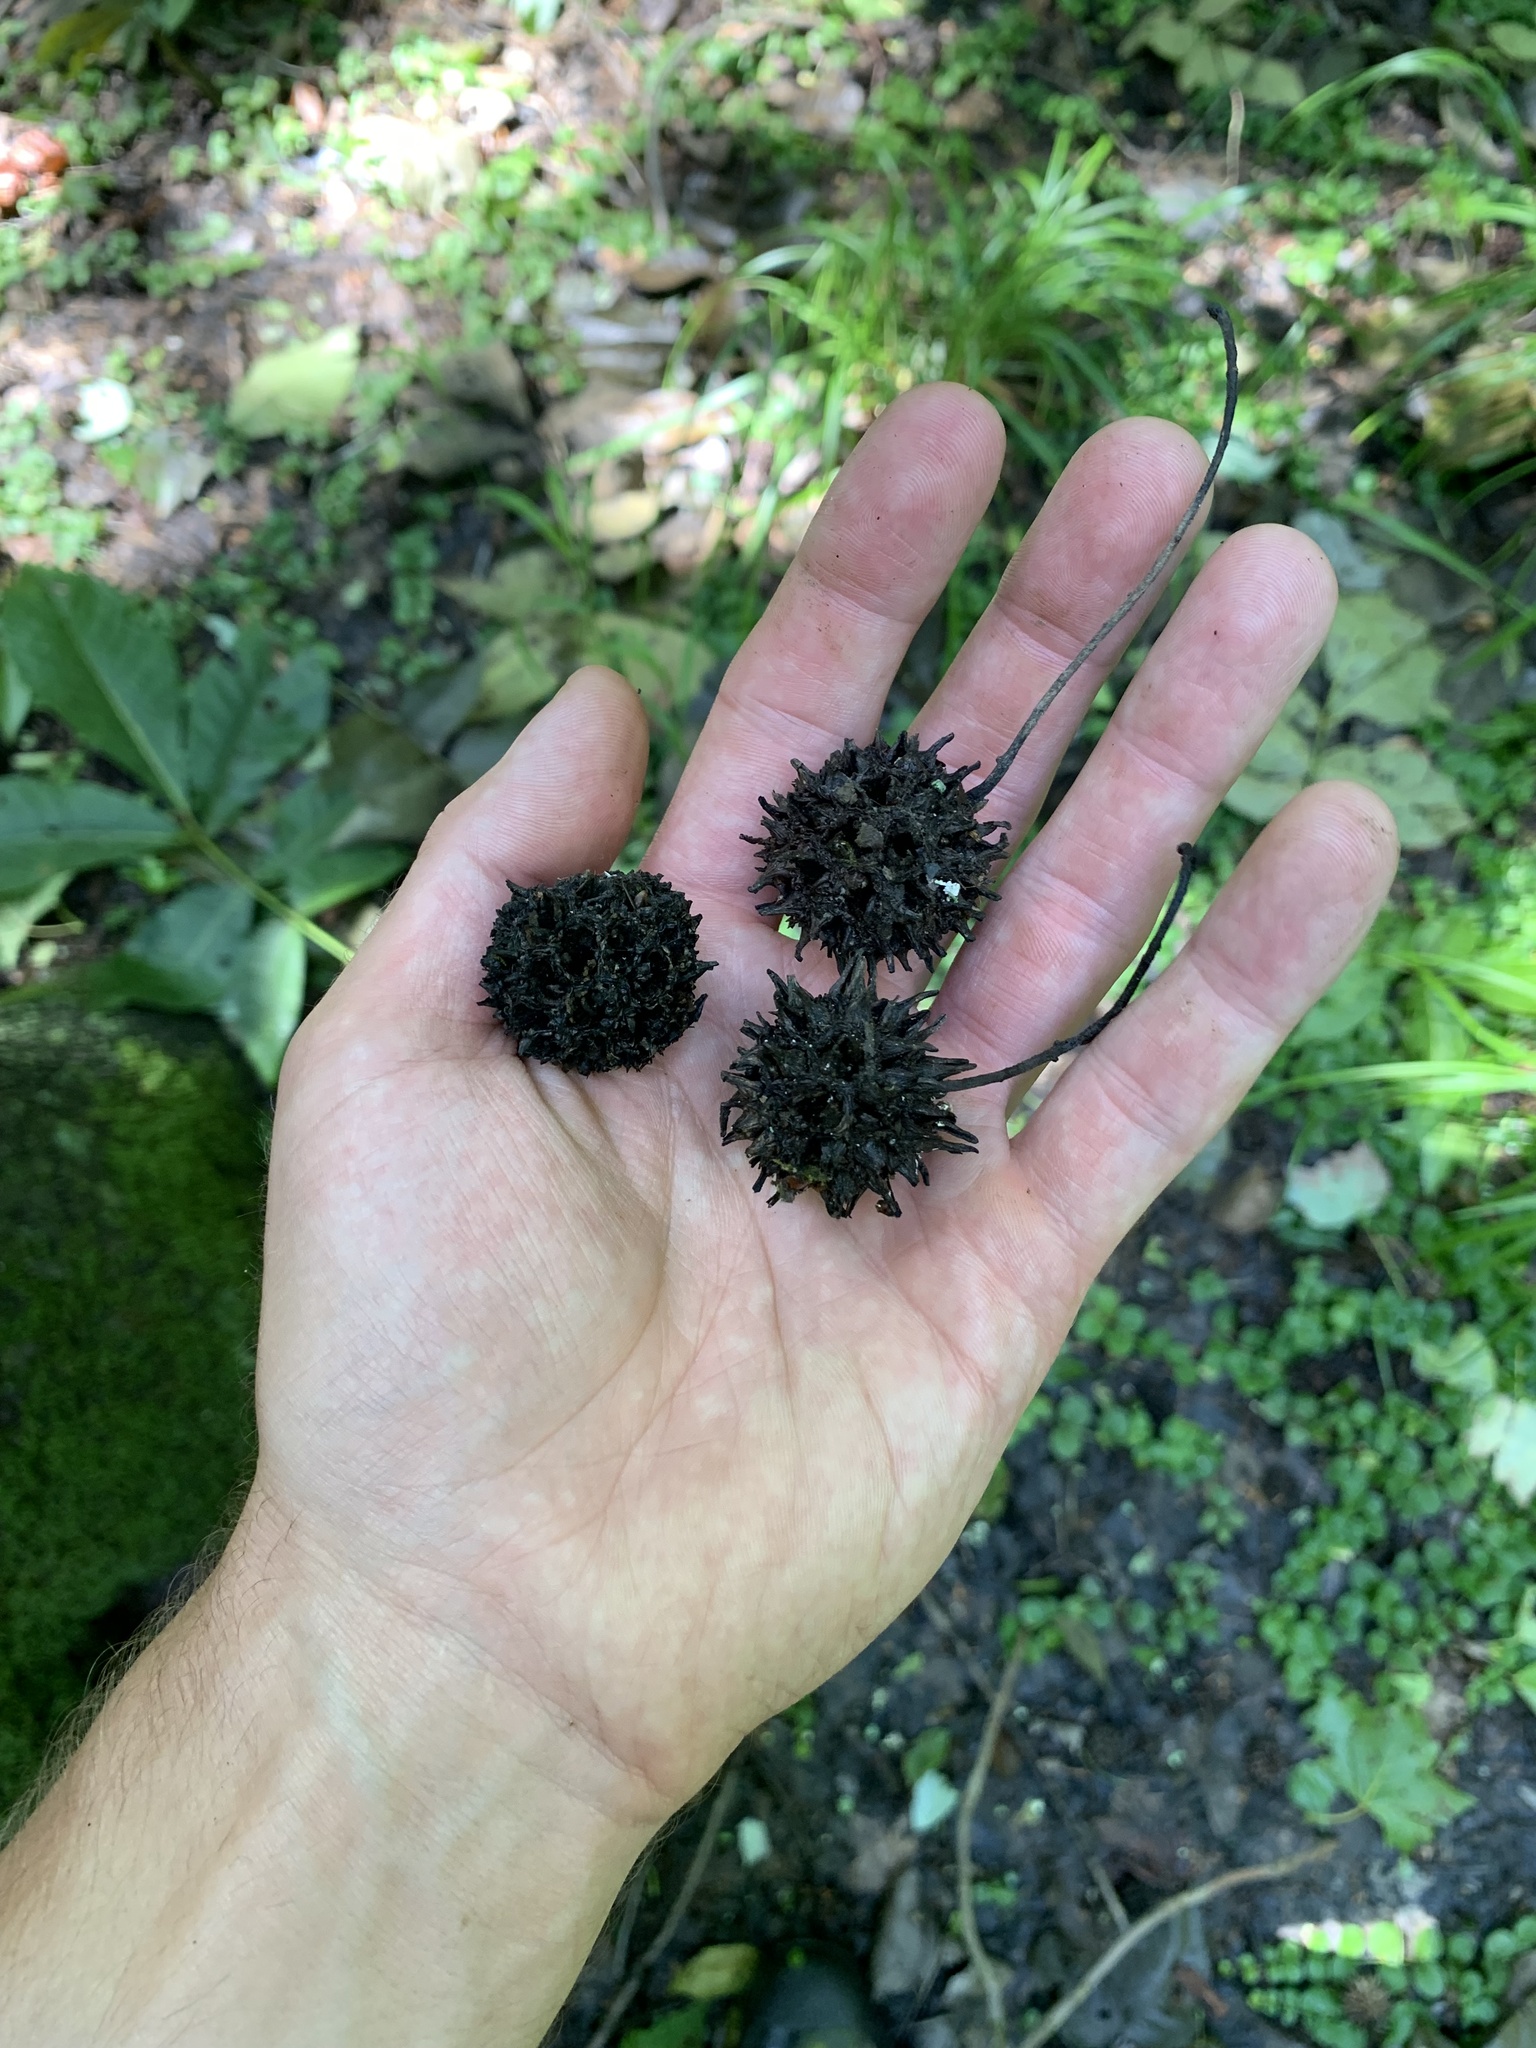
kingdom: Plantae
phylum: Tracheophyta
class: Magnoliopsida
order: Saxifragales
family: Altingiaceae
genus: Liquidambar
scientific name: Liquidambar styraciflua
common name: Sweet gum
